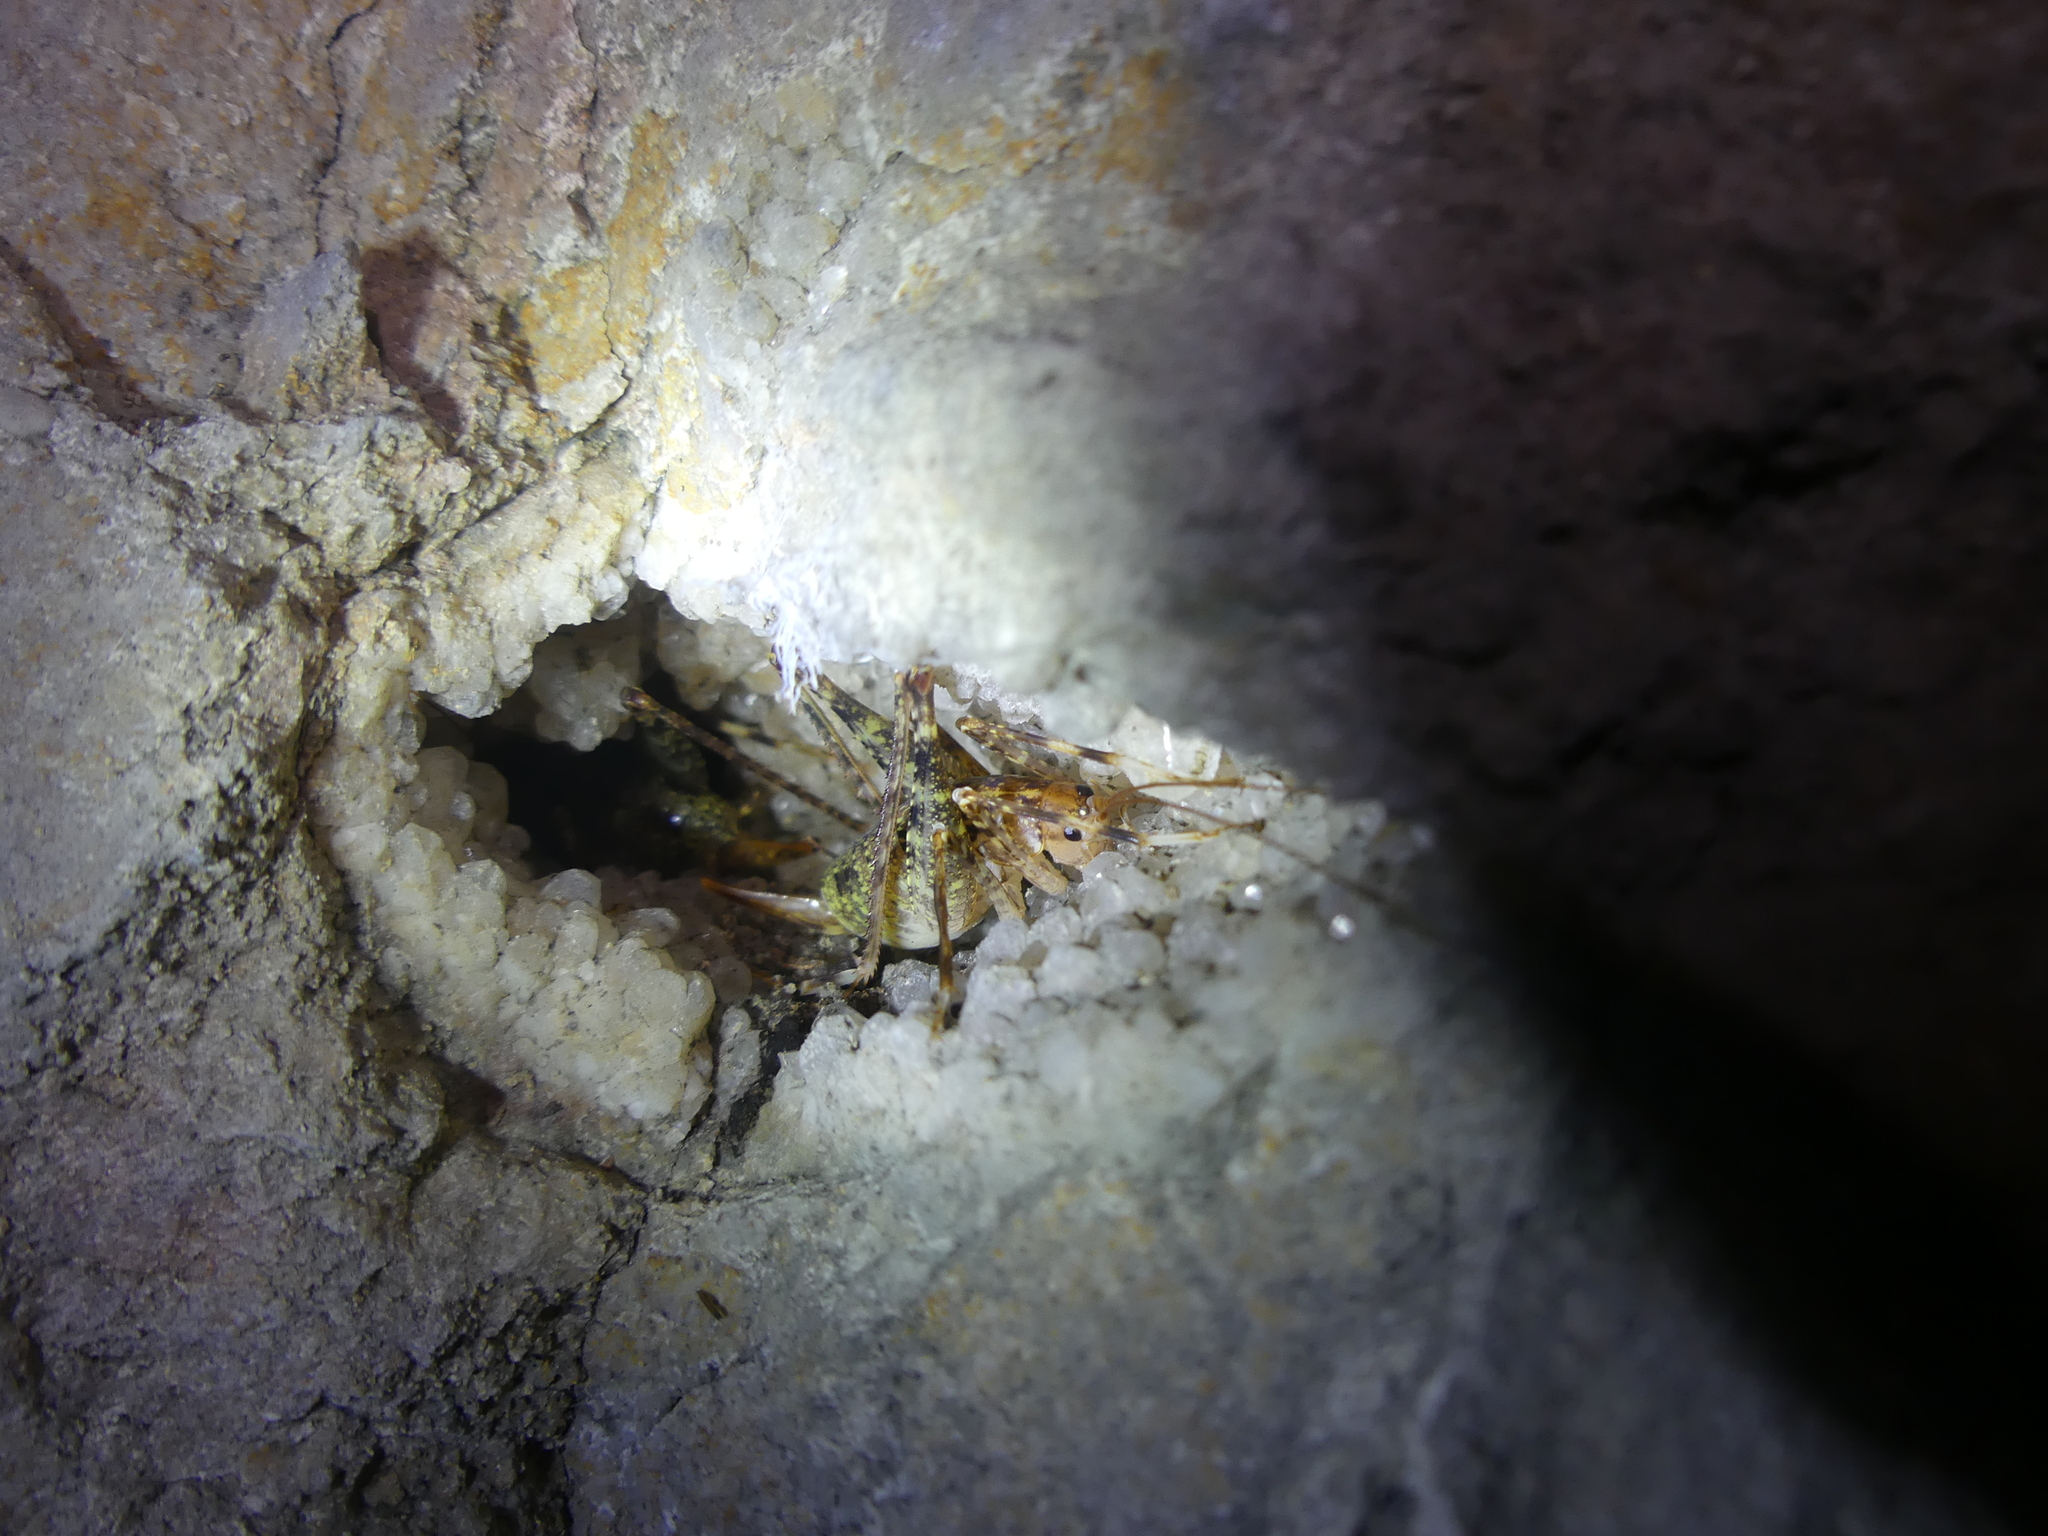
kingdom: Animalia
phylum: Arthropoda
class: Insecta
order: Orthoptera
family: Rhaphidophoridae
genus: Troglophilus
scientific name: Troglophilus neglectus
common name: Neglected cave-cricket
